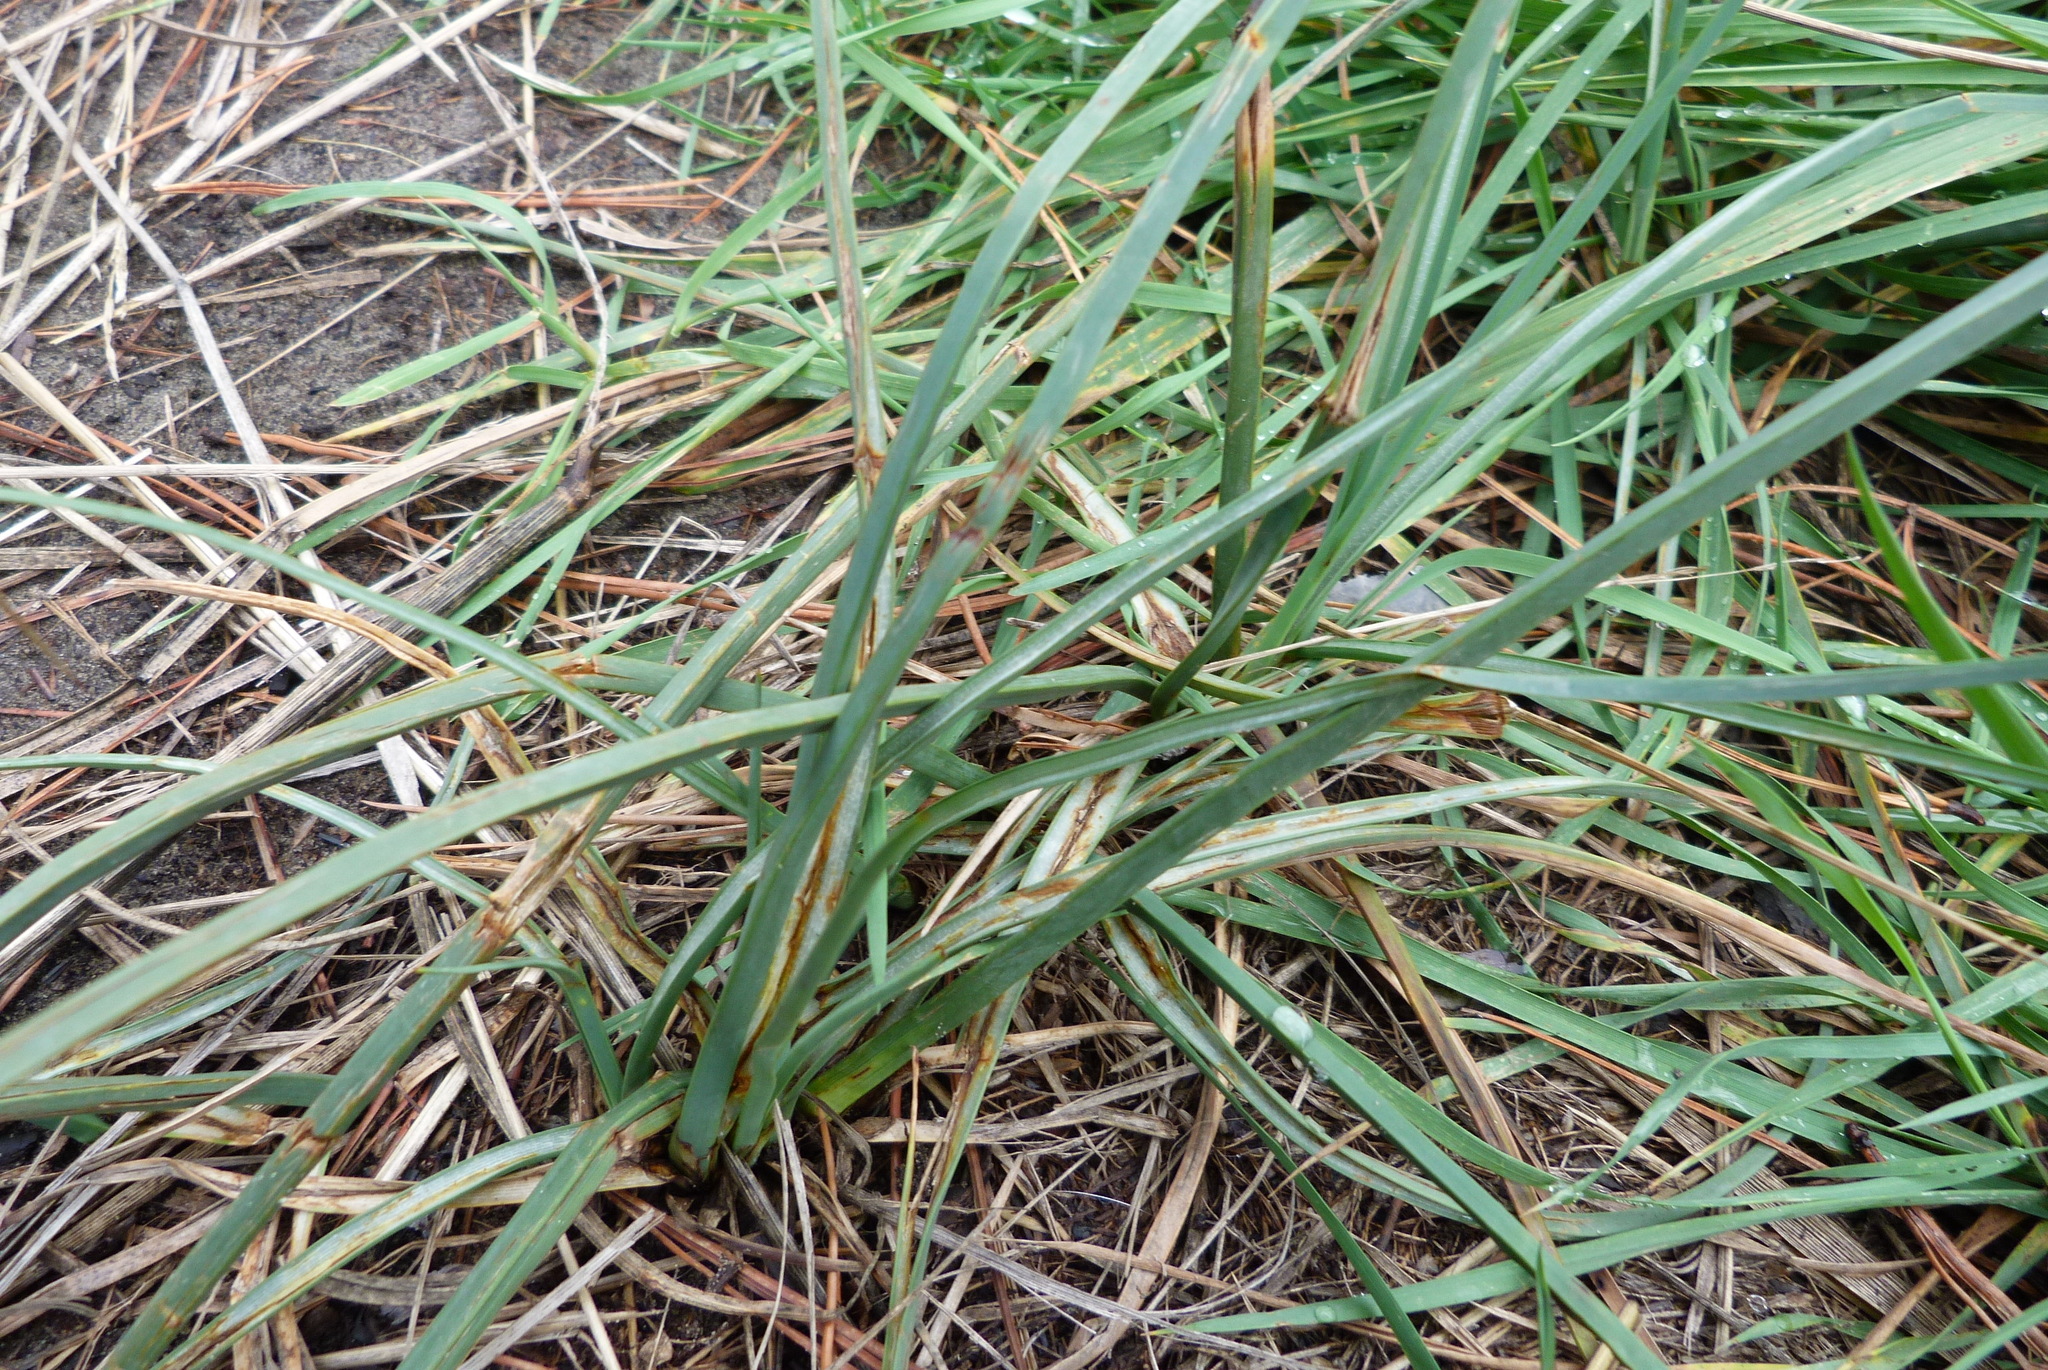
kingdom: Plantae
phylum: Tracheophyta
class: Liliopsida
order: Poales
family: Cyperaceae
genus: Schoenoplectus
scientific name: Schoenoplectus pungens
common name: Sharp club-rush
